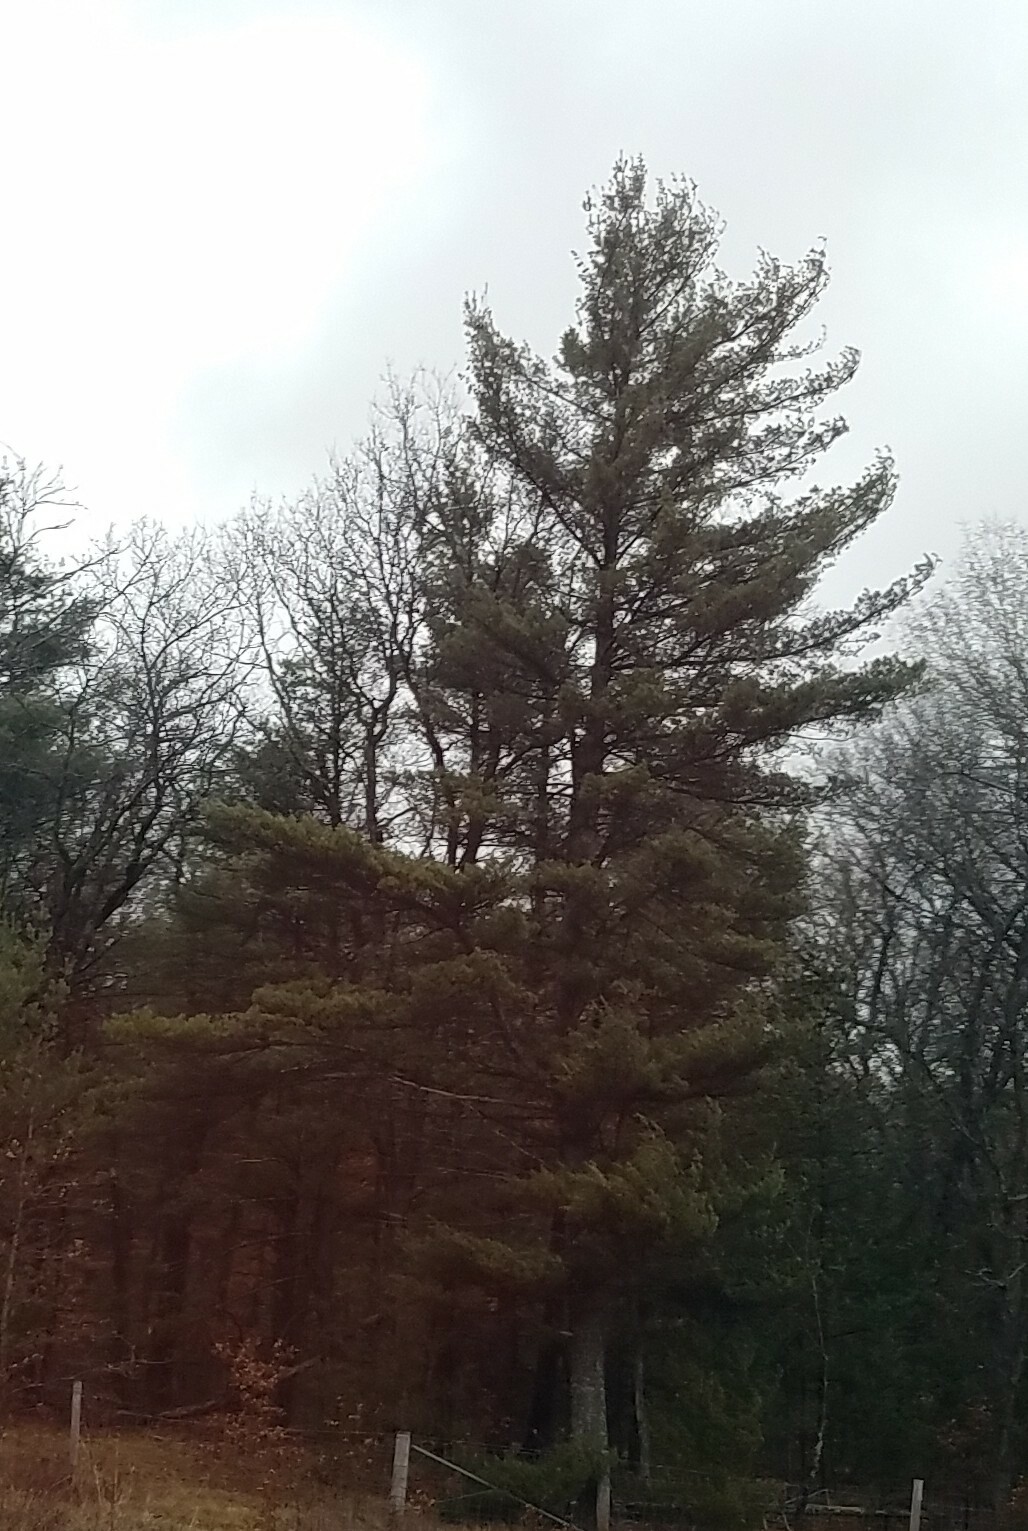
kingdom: Plantae
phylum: Tracheophyta
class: Pinopsida
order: Pinales
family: Pinaceae
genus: Pinus
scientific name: Pinus strobus
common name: Weymouth pine
